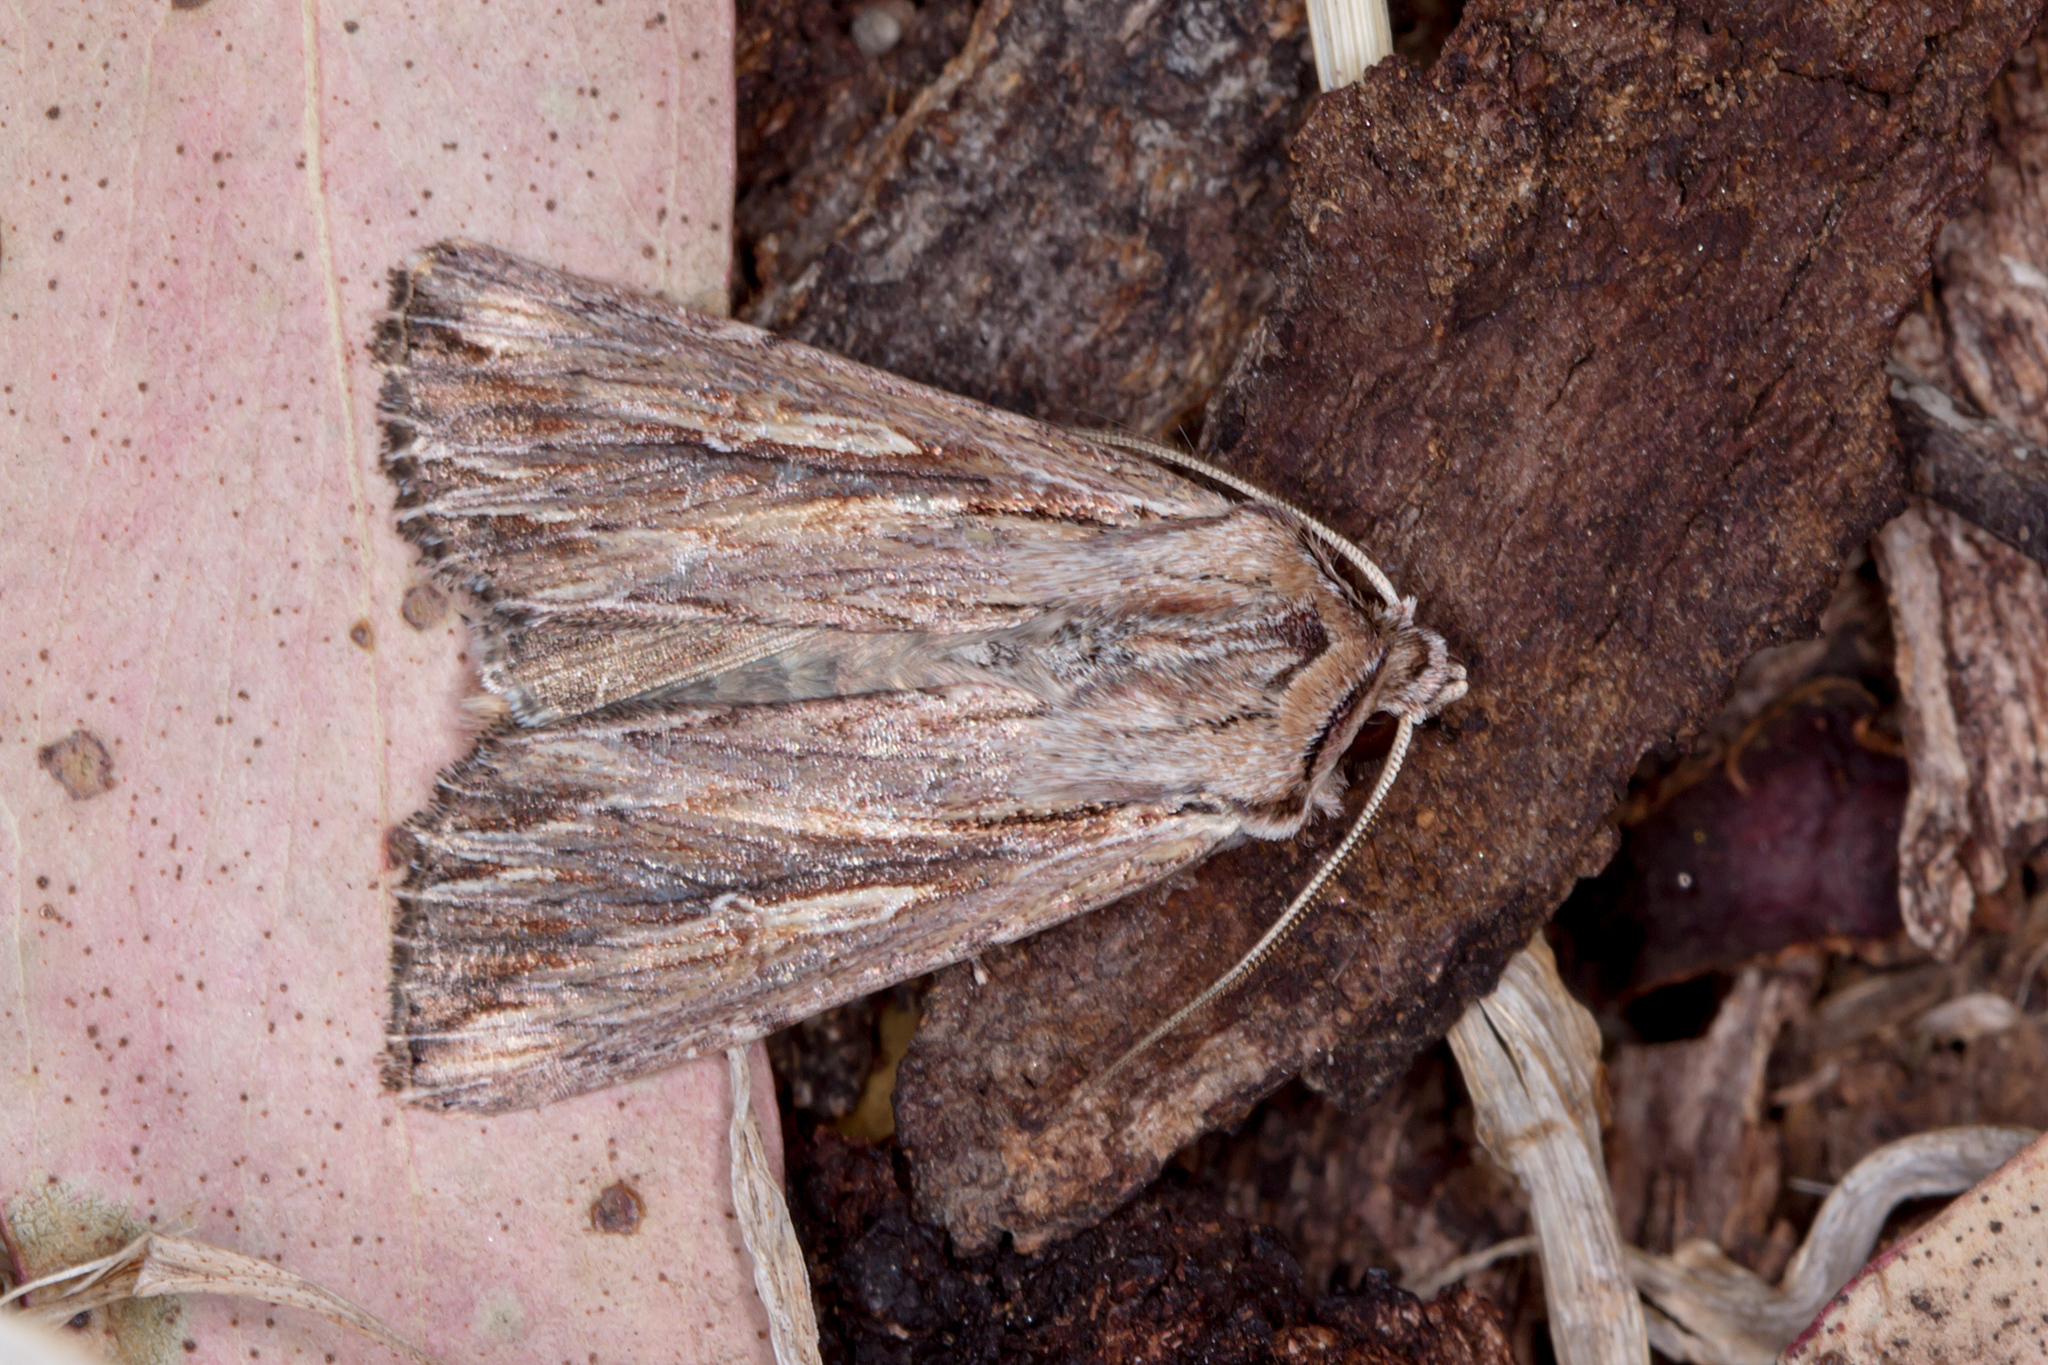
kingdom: Animalia
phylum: Arthropoda
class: Insecta
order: Lepidoptera
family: Noctuidae
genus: Persectania
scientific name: Persectania ewingii
